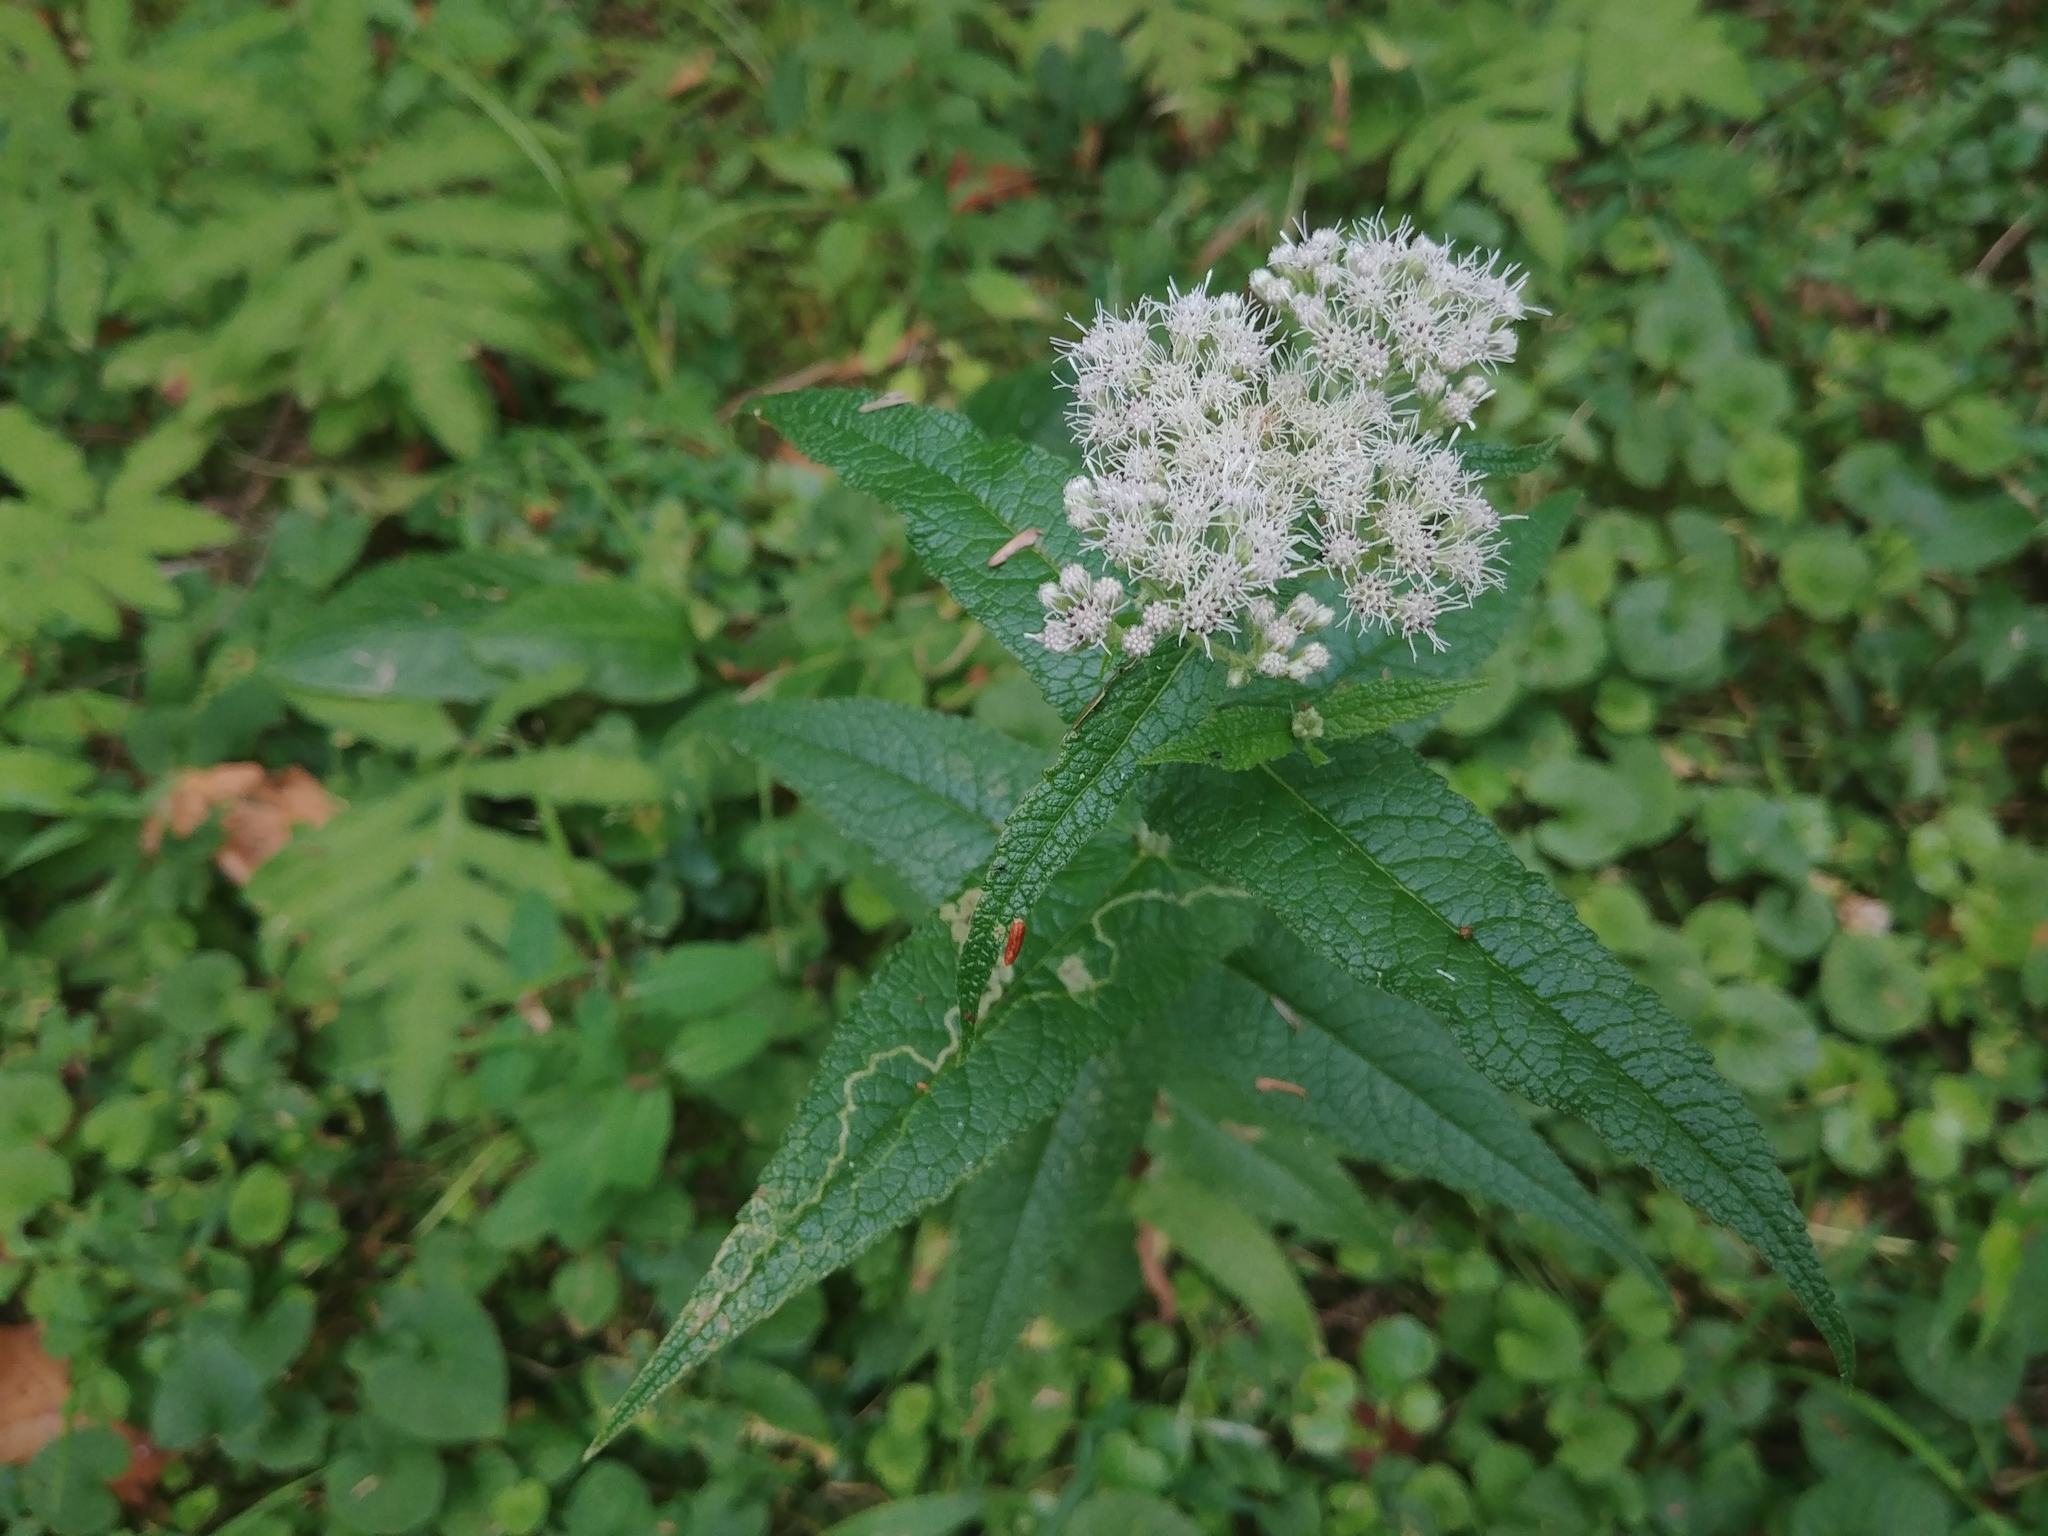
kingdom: Plantae
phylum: Tracheophyta
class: Magnoliopsida
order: Asterales
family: Asteraceae
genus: Eupatorium
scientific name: Eupatorium perfoliatum
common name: Boneset
